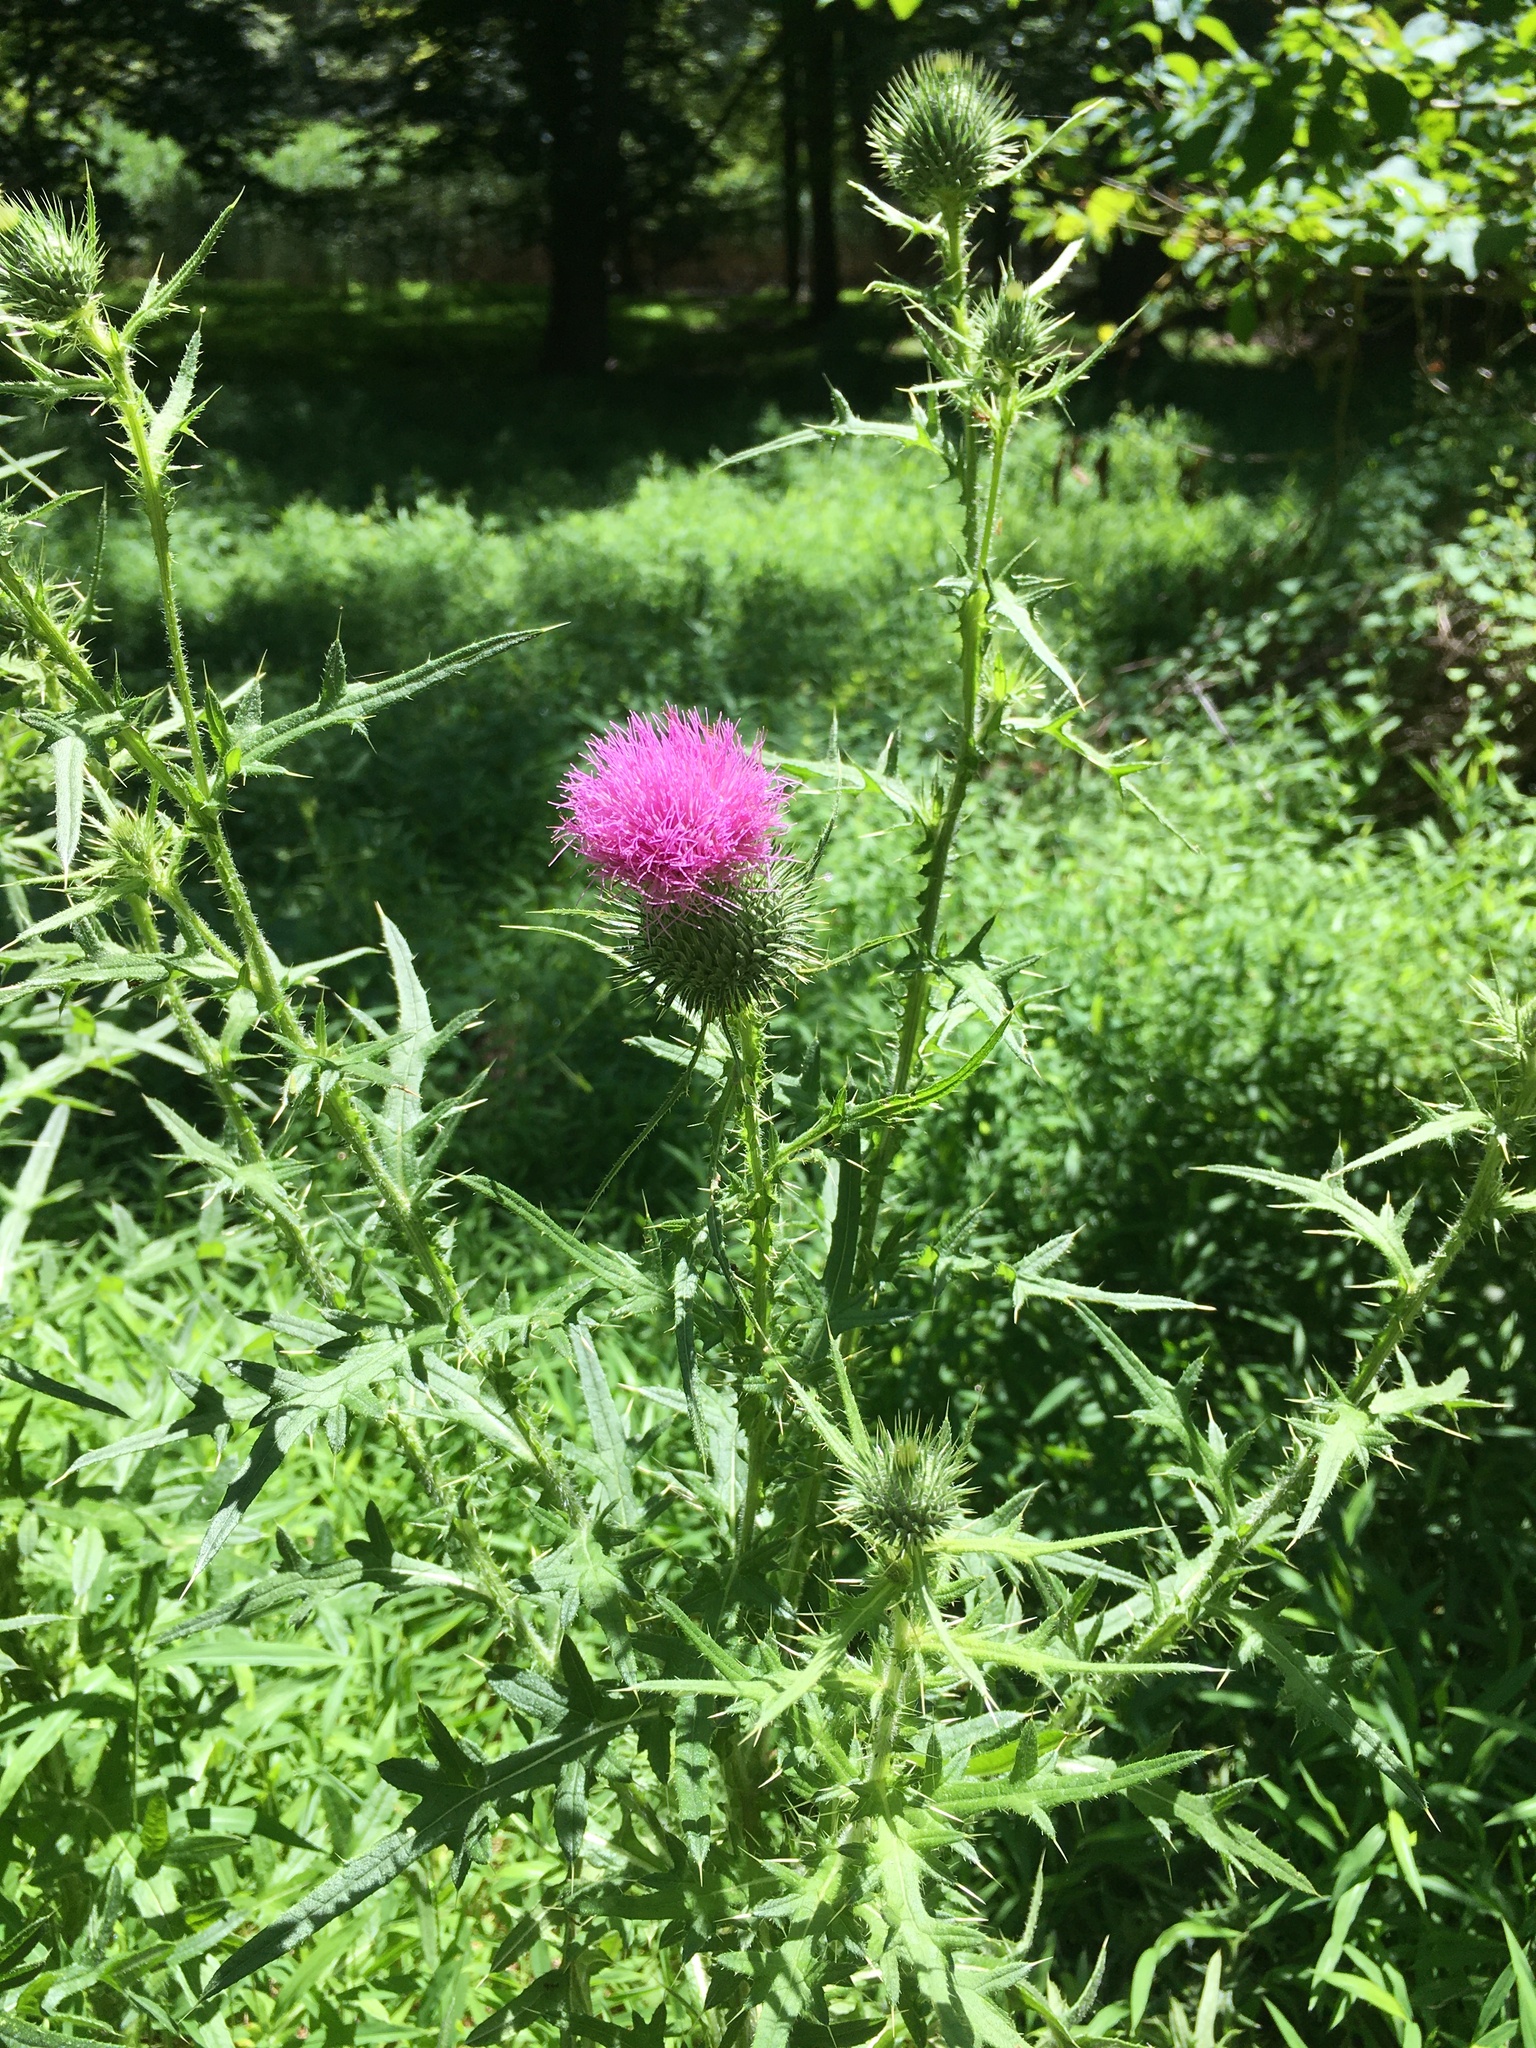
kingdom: Plantae
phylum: Tracheophyta
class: Magnoliopsida
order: Asterales
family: Asteraceae
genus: Cirsium
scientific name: Cirsium vulgare
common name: Bull thistle
